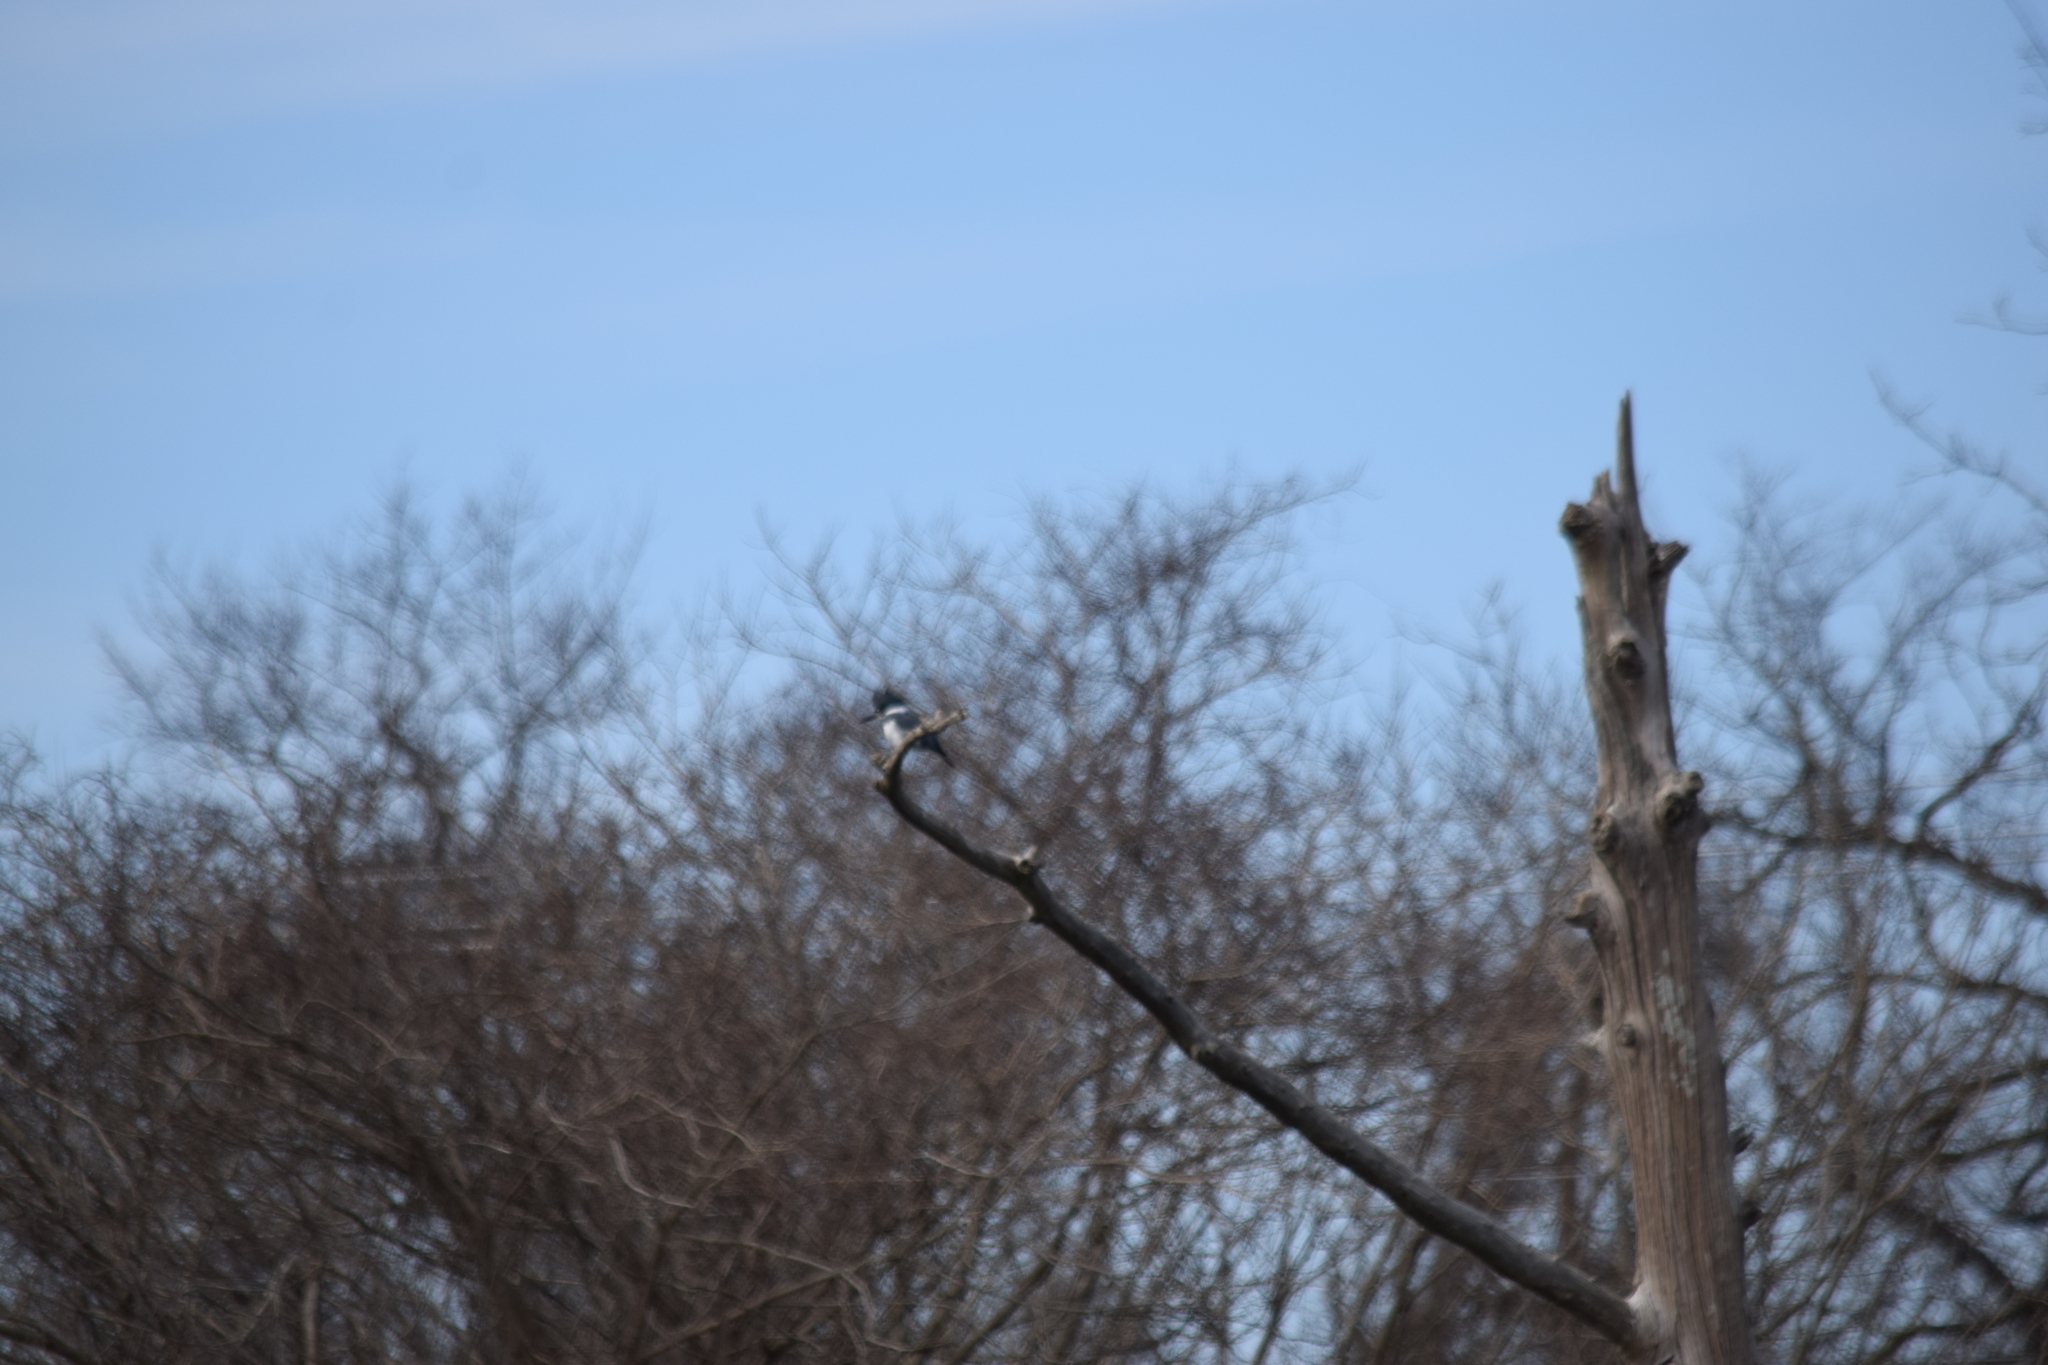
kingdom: Animalia
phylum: Chordata
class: Aves
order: Coraciiformes
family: Alcedinidae
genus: Megaceryle
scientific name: Megaceryle alcyon
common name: Belted kingfisher
